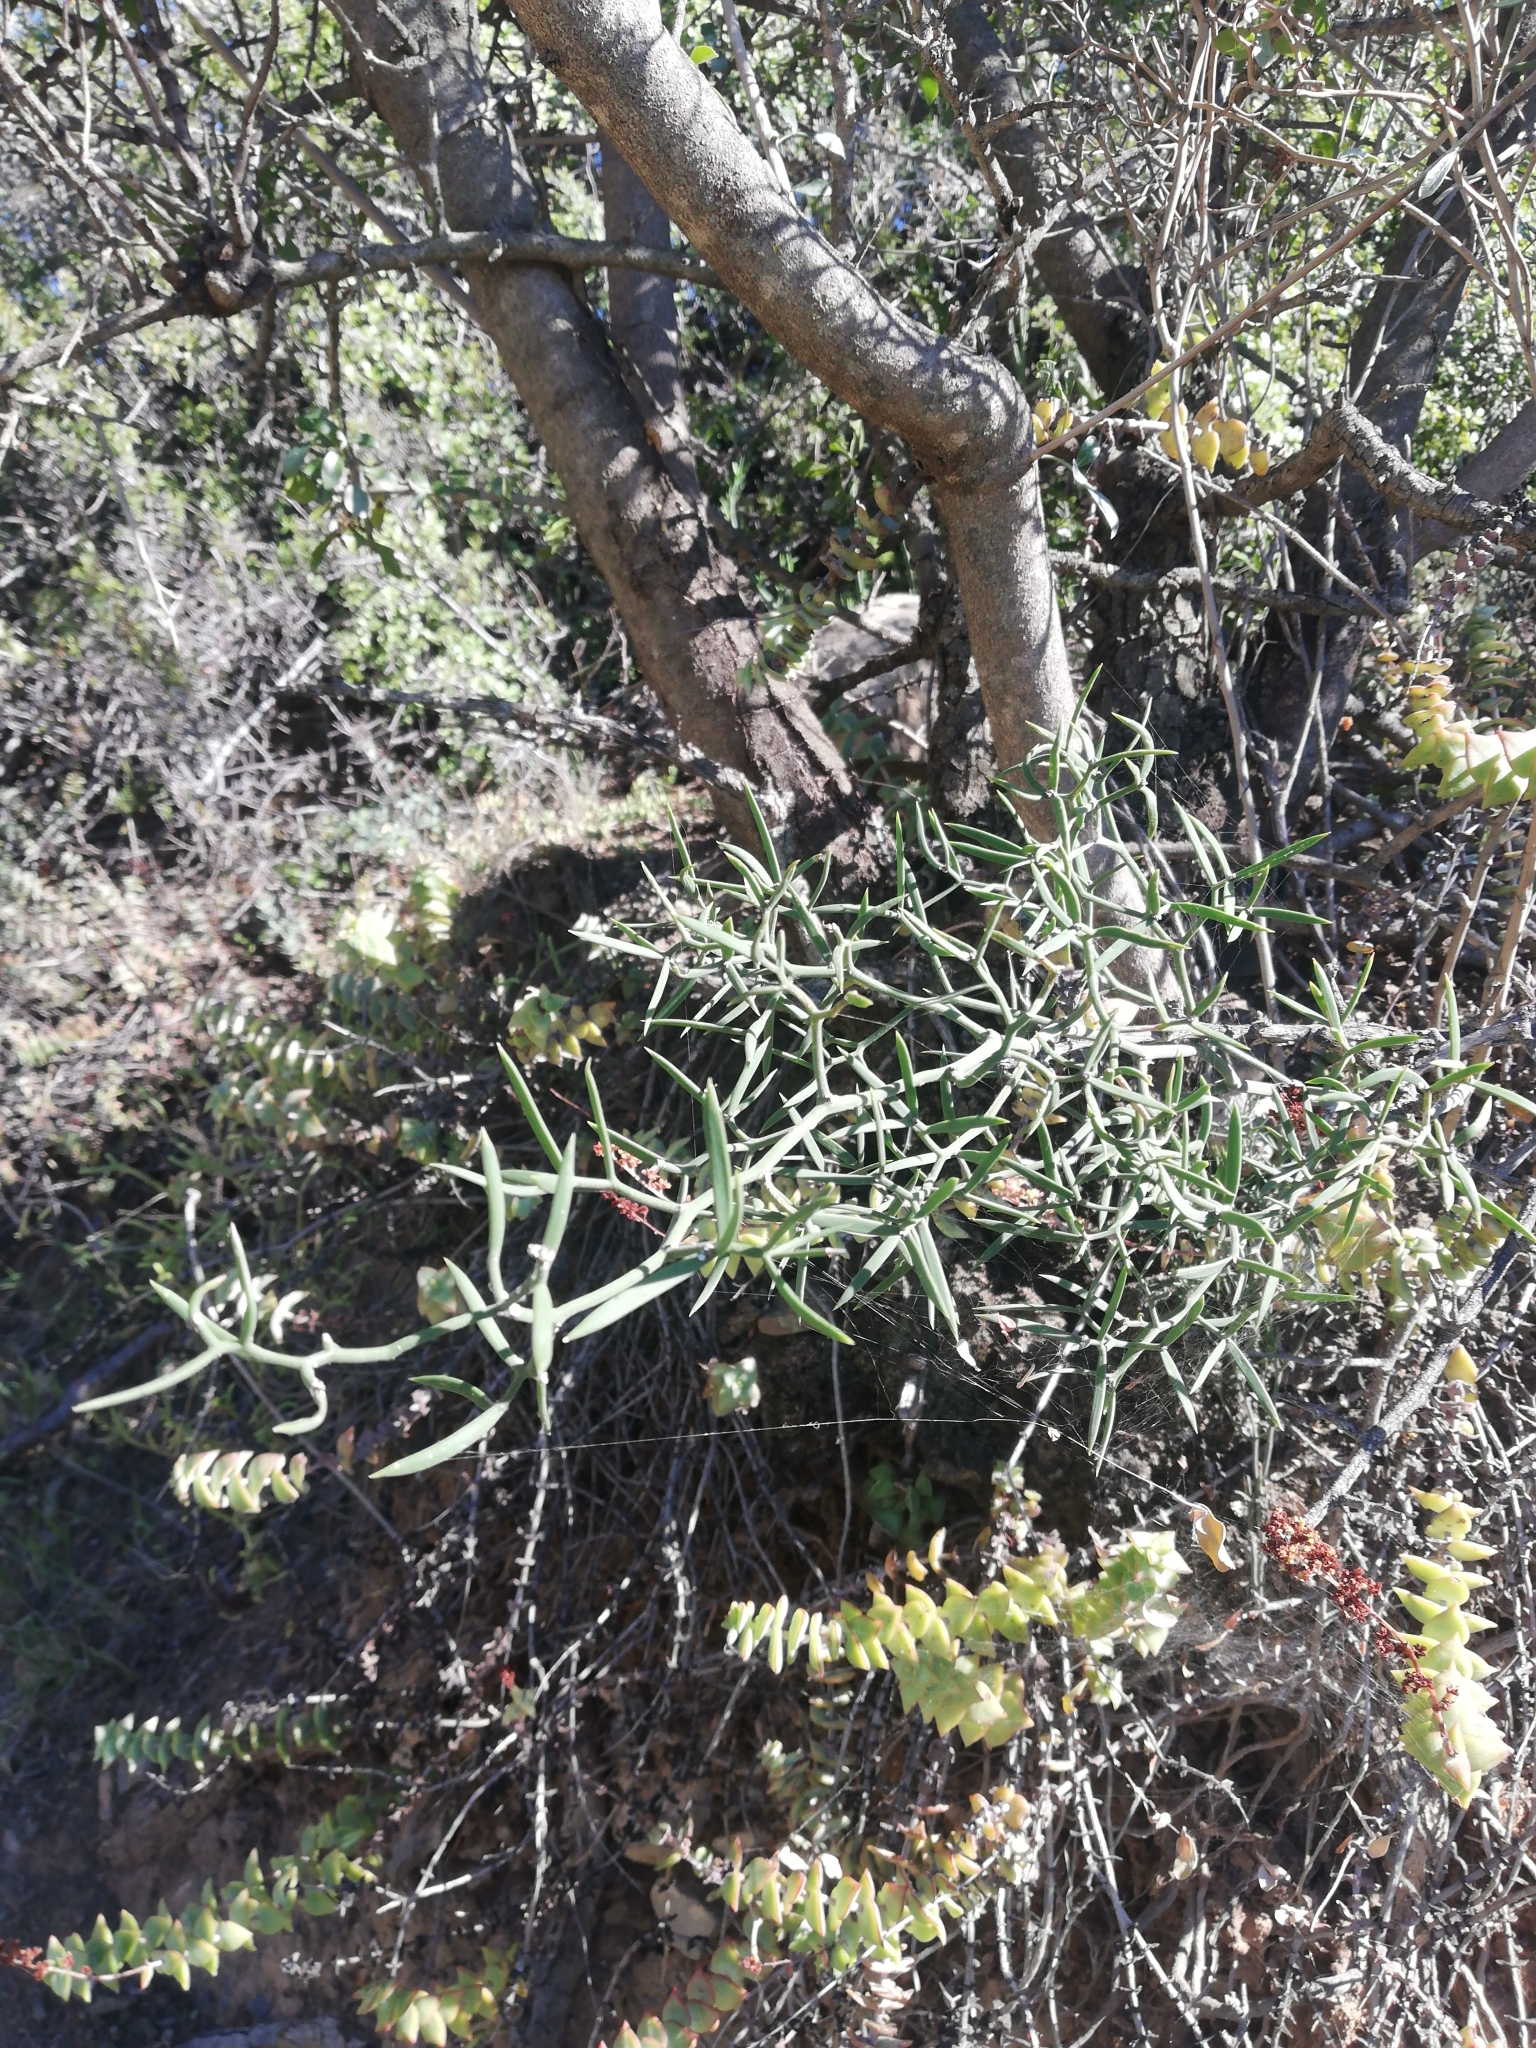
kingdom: Plantae
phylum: Tracheophyta
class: Liliopsida
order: Asparagales
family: Asparagaceae
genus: Asparagus
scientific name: Asparagus striatus
